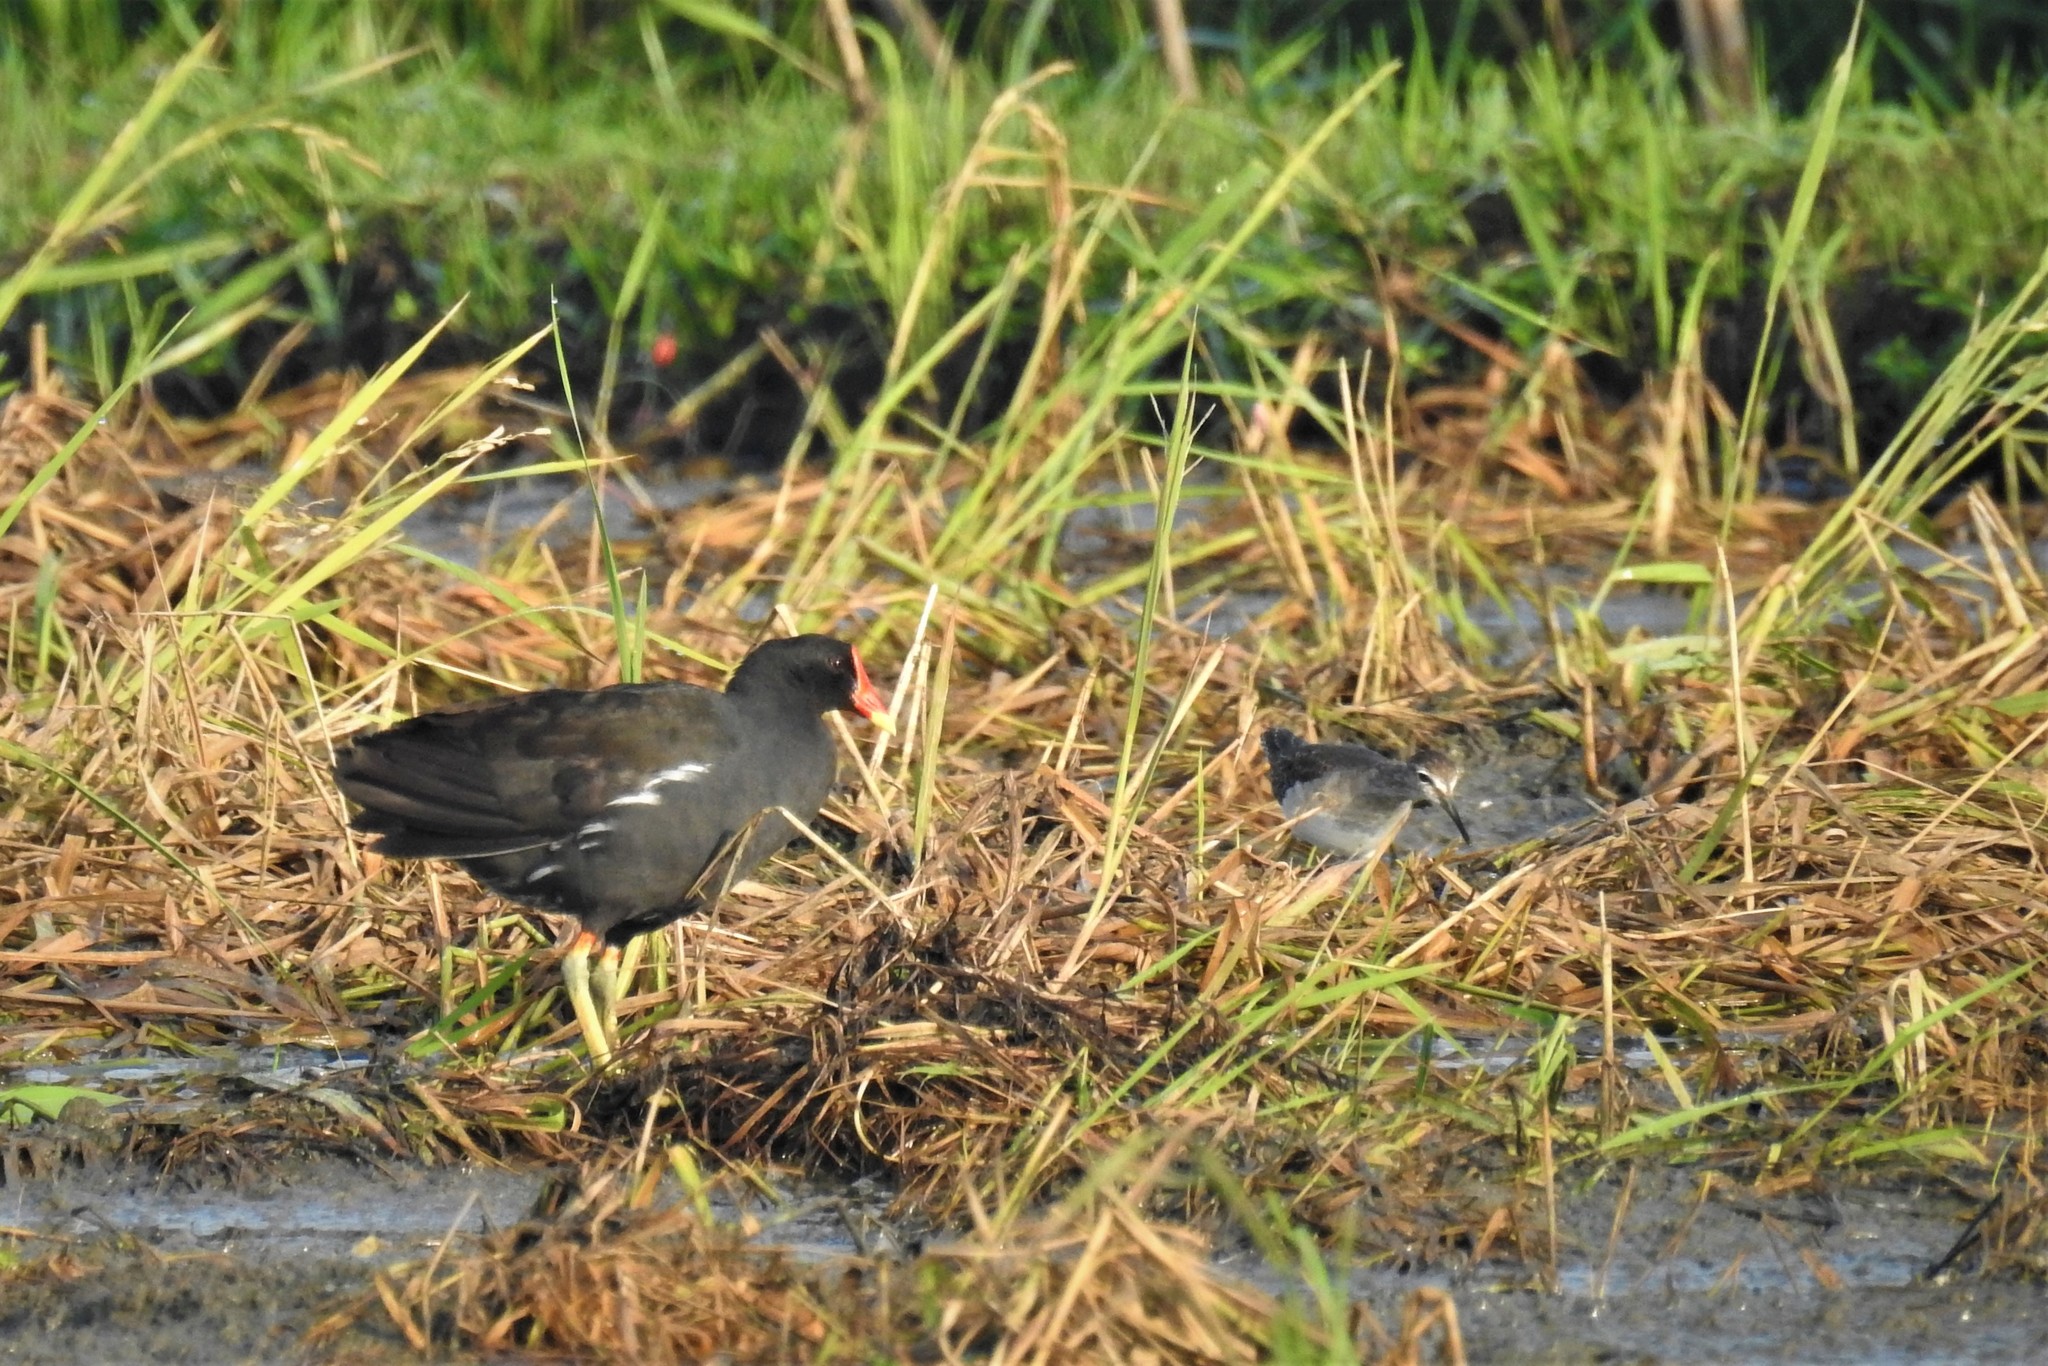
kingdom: Animalia
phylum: Chordata
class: Aves
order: Gruiformes
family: Rallidae
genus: Gallinula
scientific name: Gallinula chloropus
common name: Common moorhen
